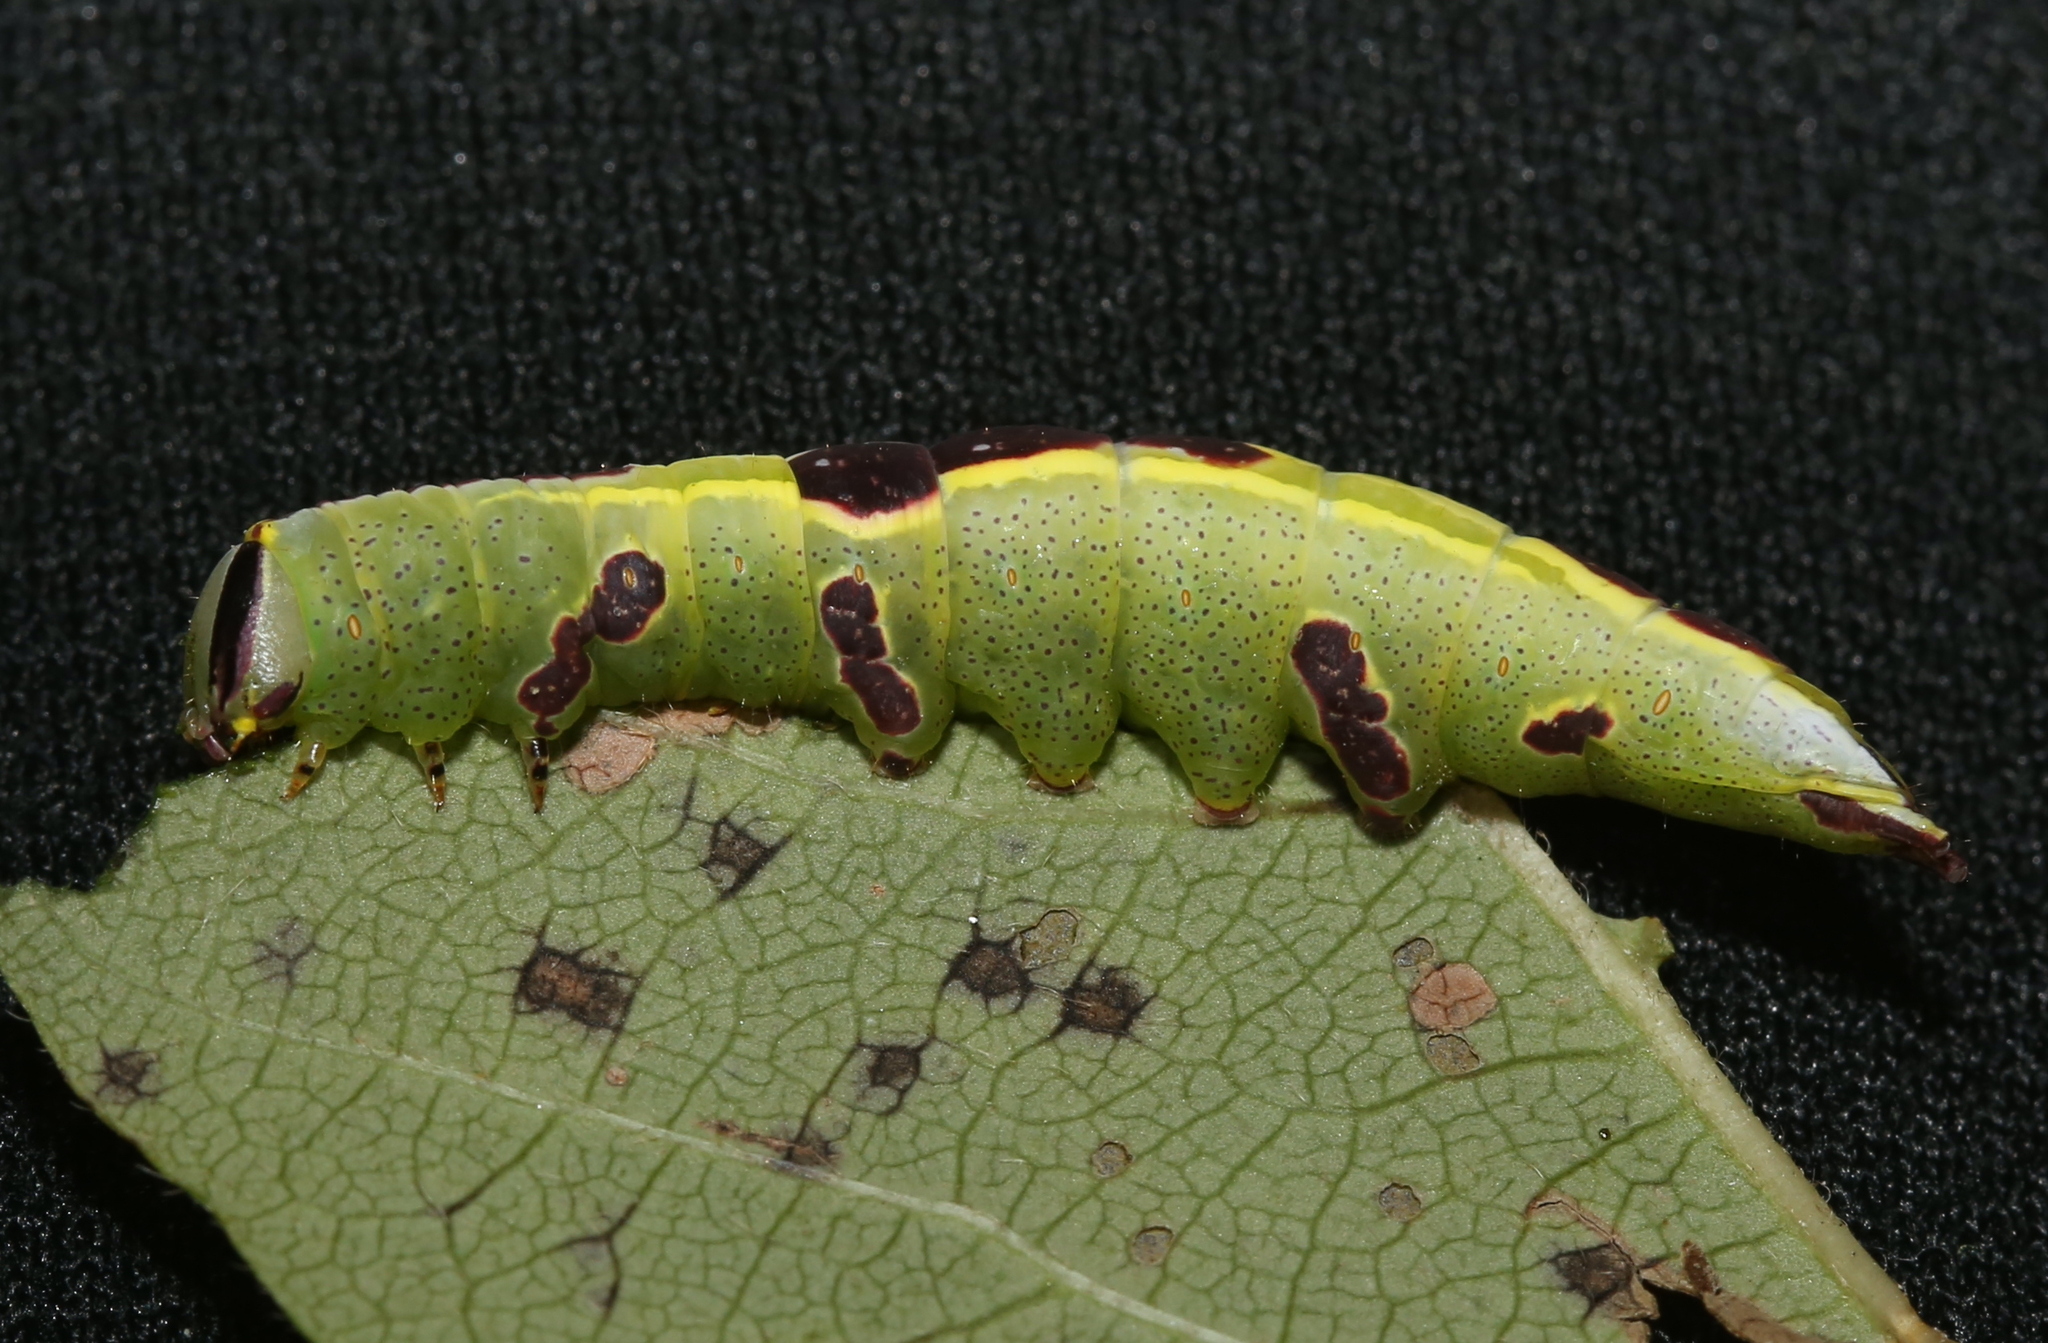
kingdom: Animalia
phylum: Arthropoda
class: Insecta
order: Lepidoptera
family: Notodontidae
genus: Disphragis
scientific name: Disphragis Cecrita guttivitta
